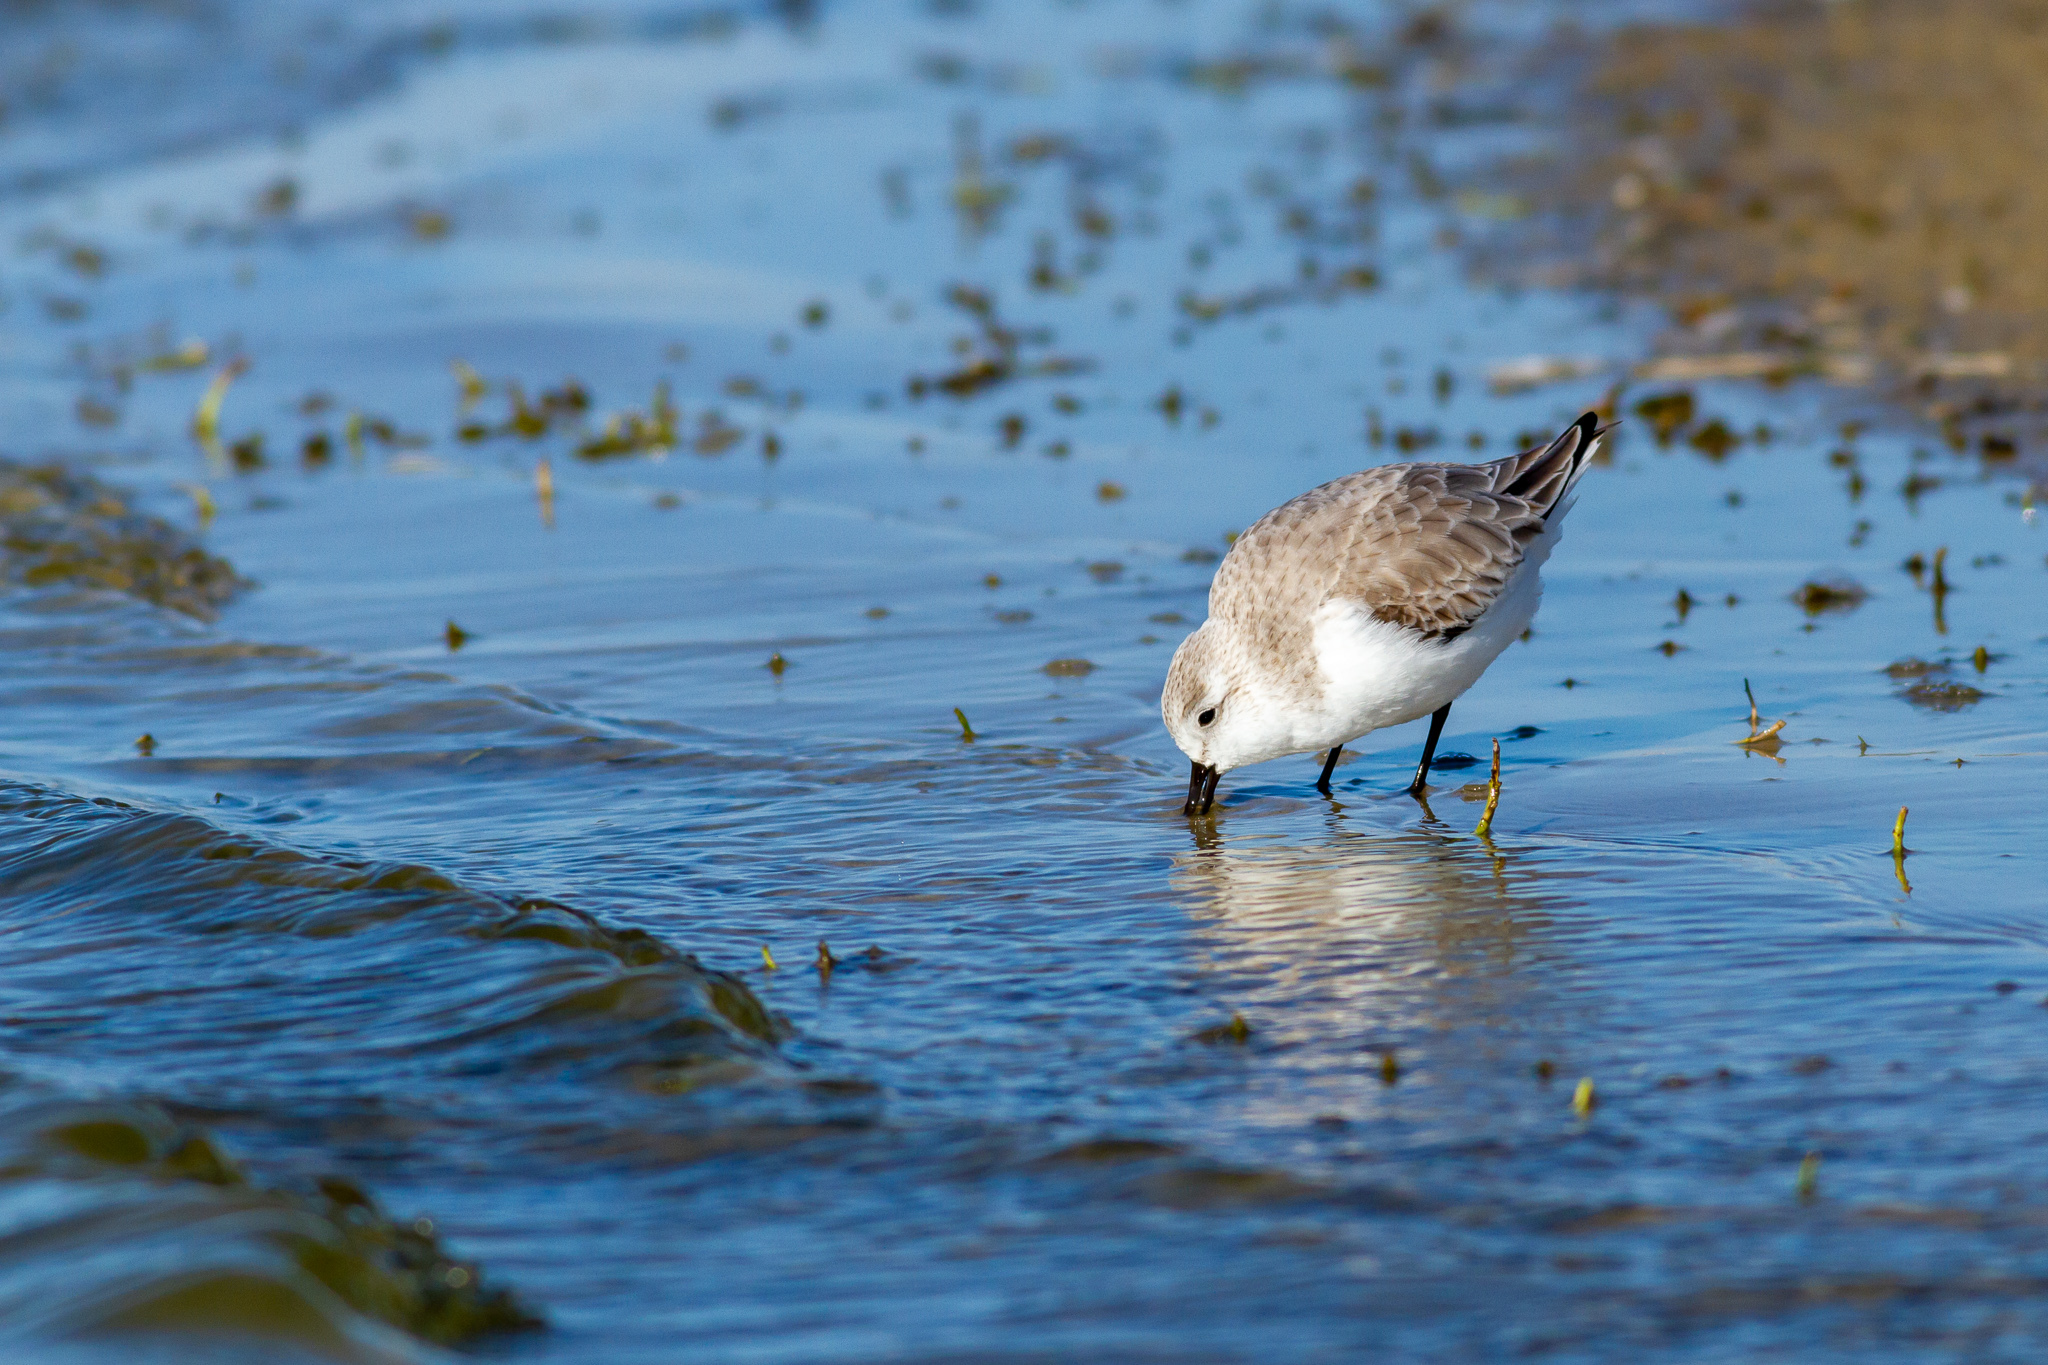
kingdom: Animalia
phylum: Chordata
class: Aves
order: Charadriiformes
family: Scolopacidae
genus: Calidris
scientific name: Calidris alba
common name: Sanderling
